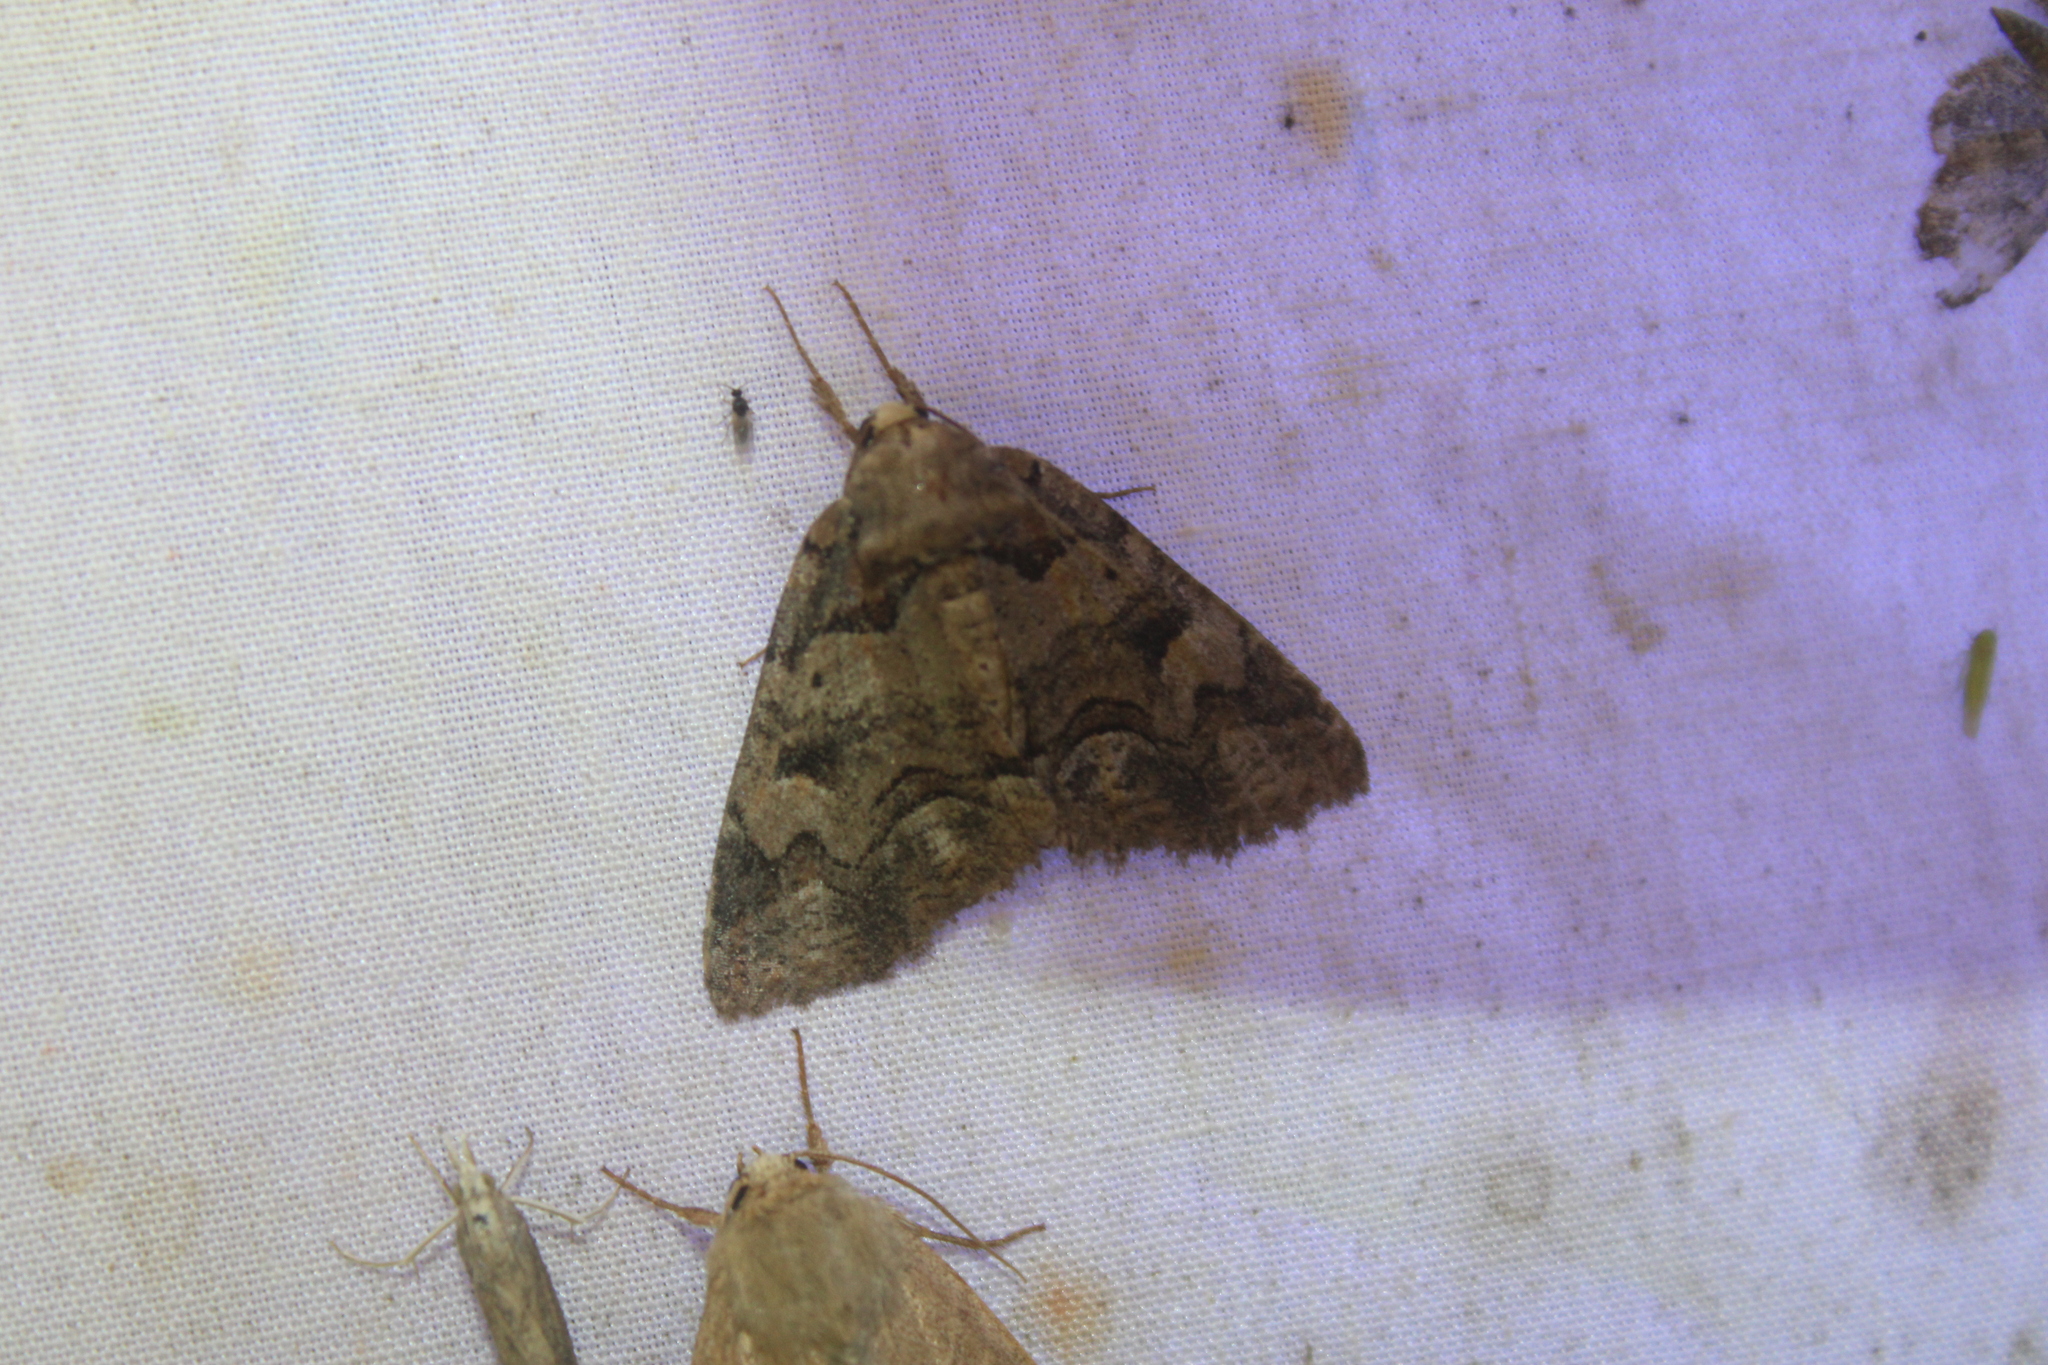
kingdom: Animalia
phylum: Arthropoda
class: Insecta
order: Lepidoptera
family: Erebidae
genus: Zale
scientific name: Zale helata
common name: Brown-spotted zale moth
